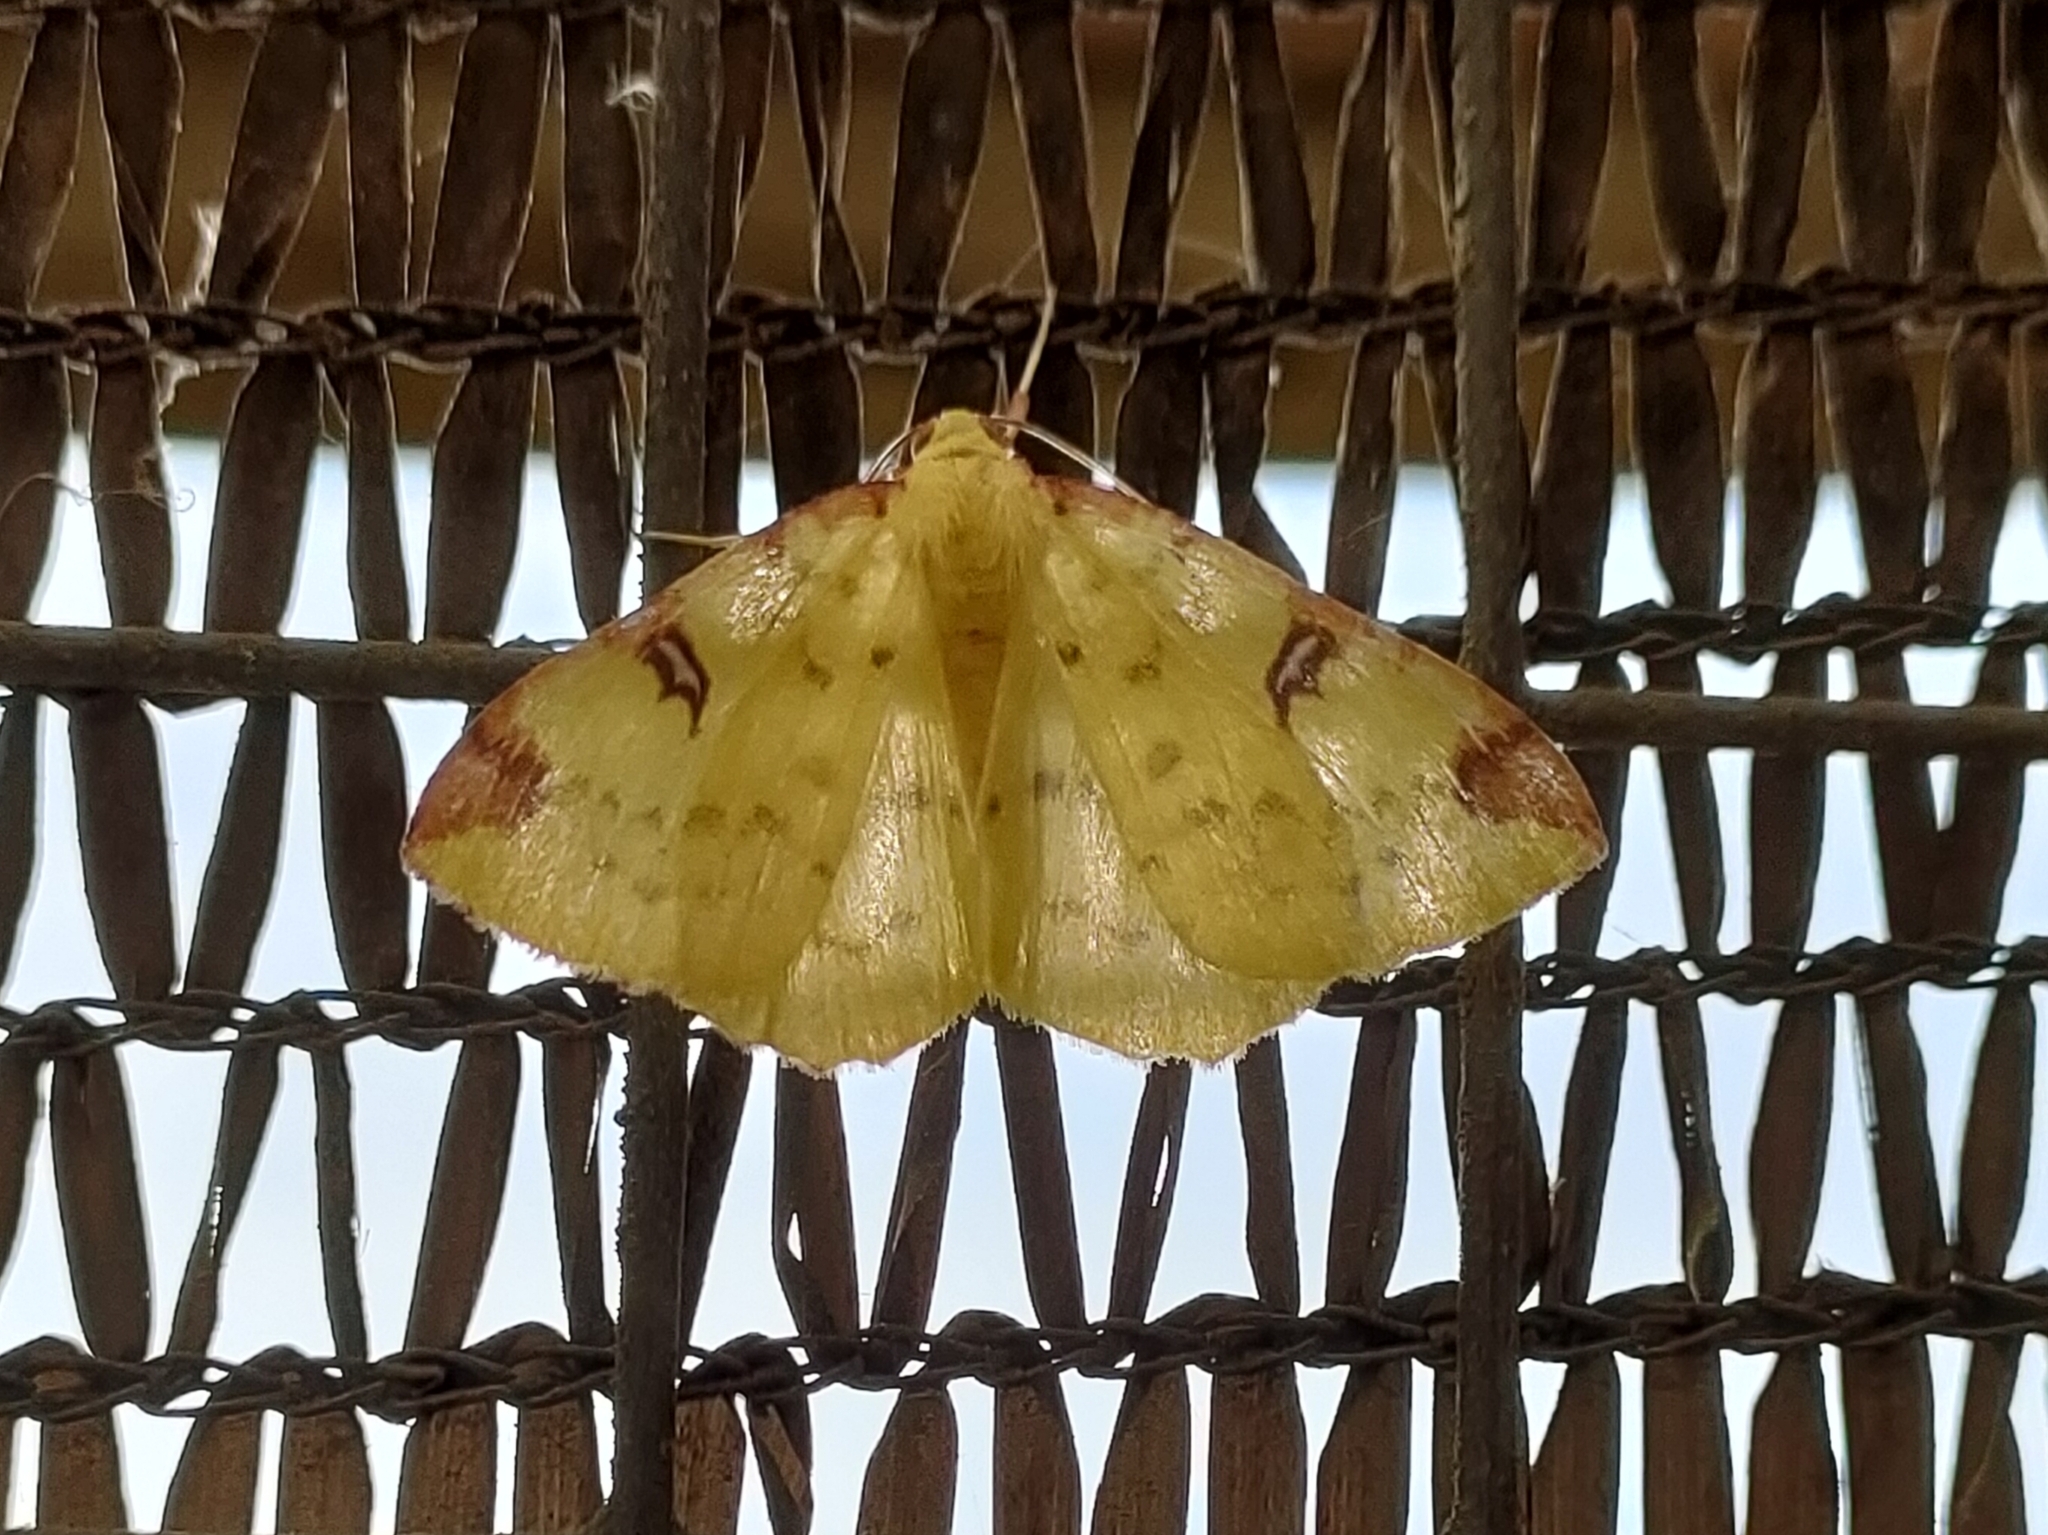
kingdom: Animalia
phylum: Arthropoda
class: Insecta
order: Lepidoptera
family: Geometridae
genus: Opisthograptis
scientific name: Opisthograptis luteolata
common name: Brimstone moth
